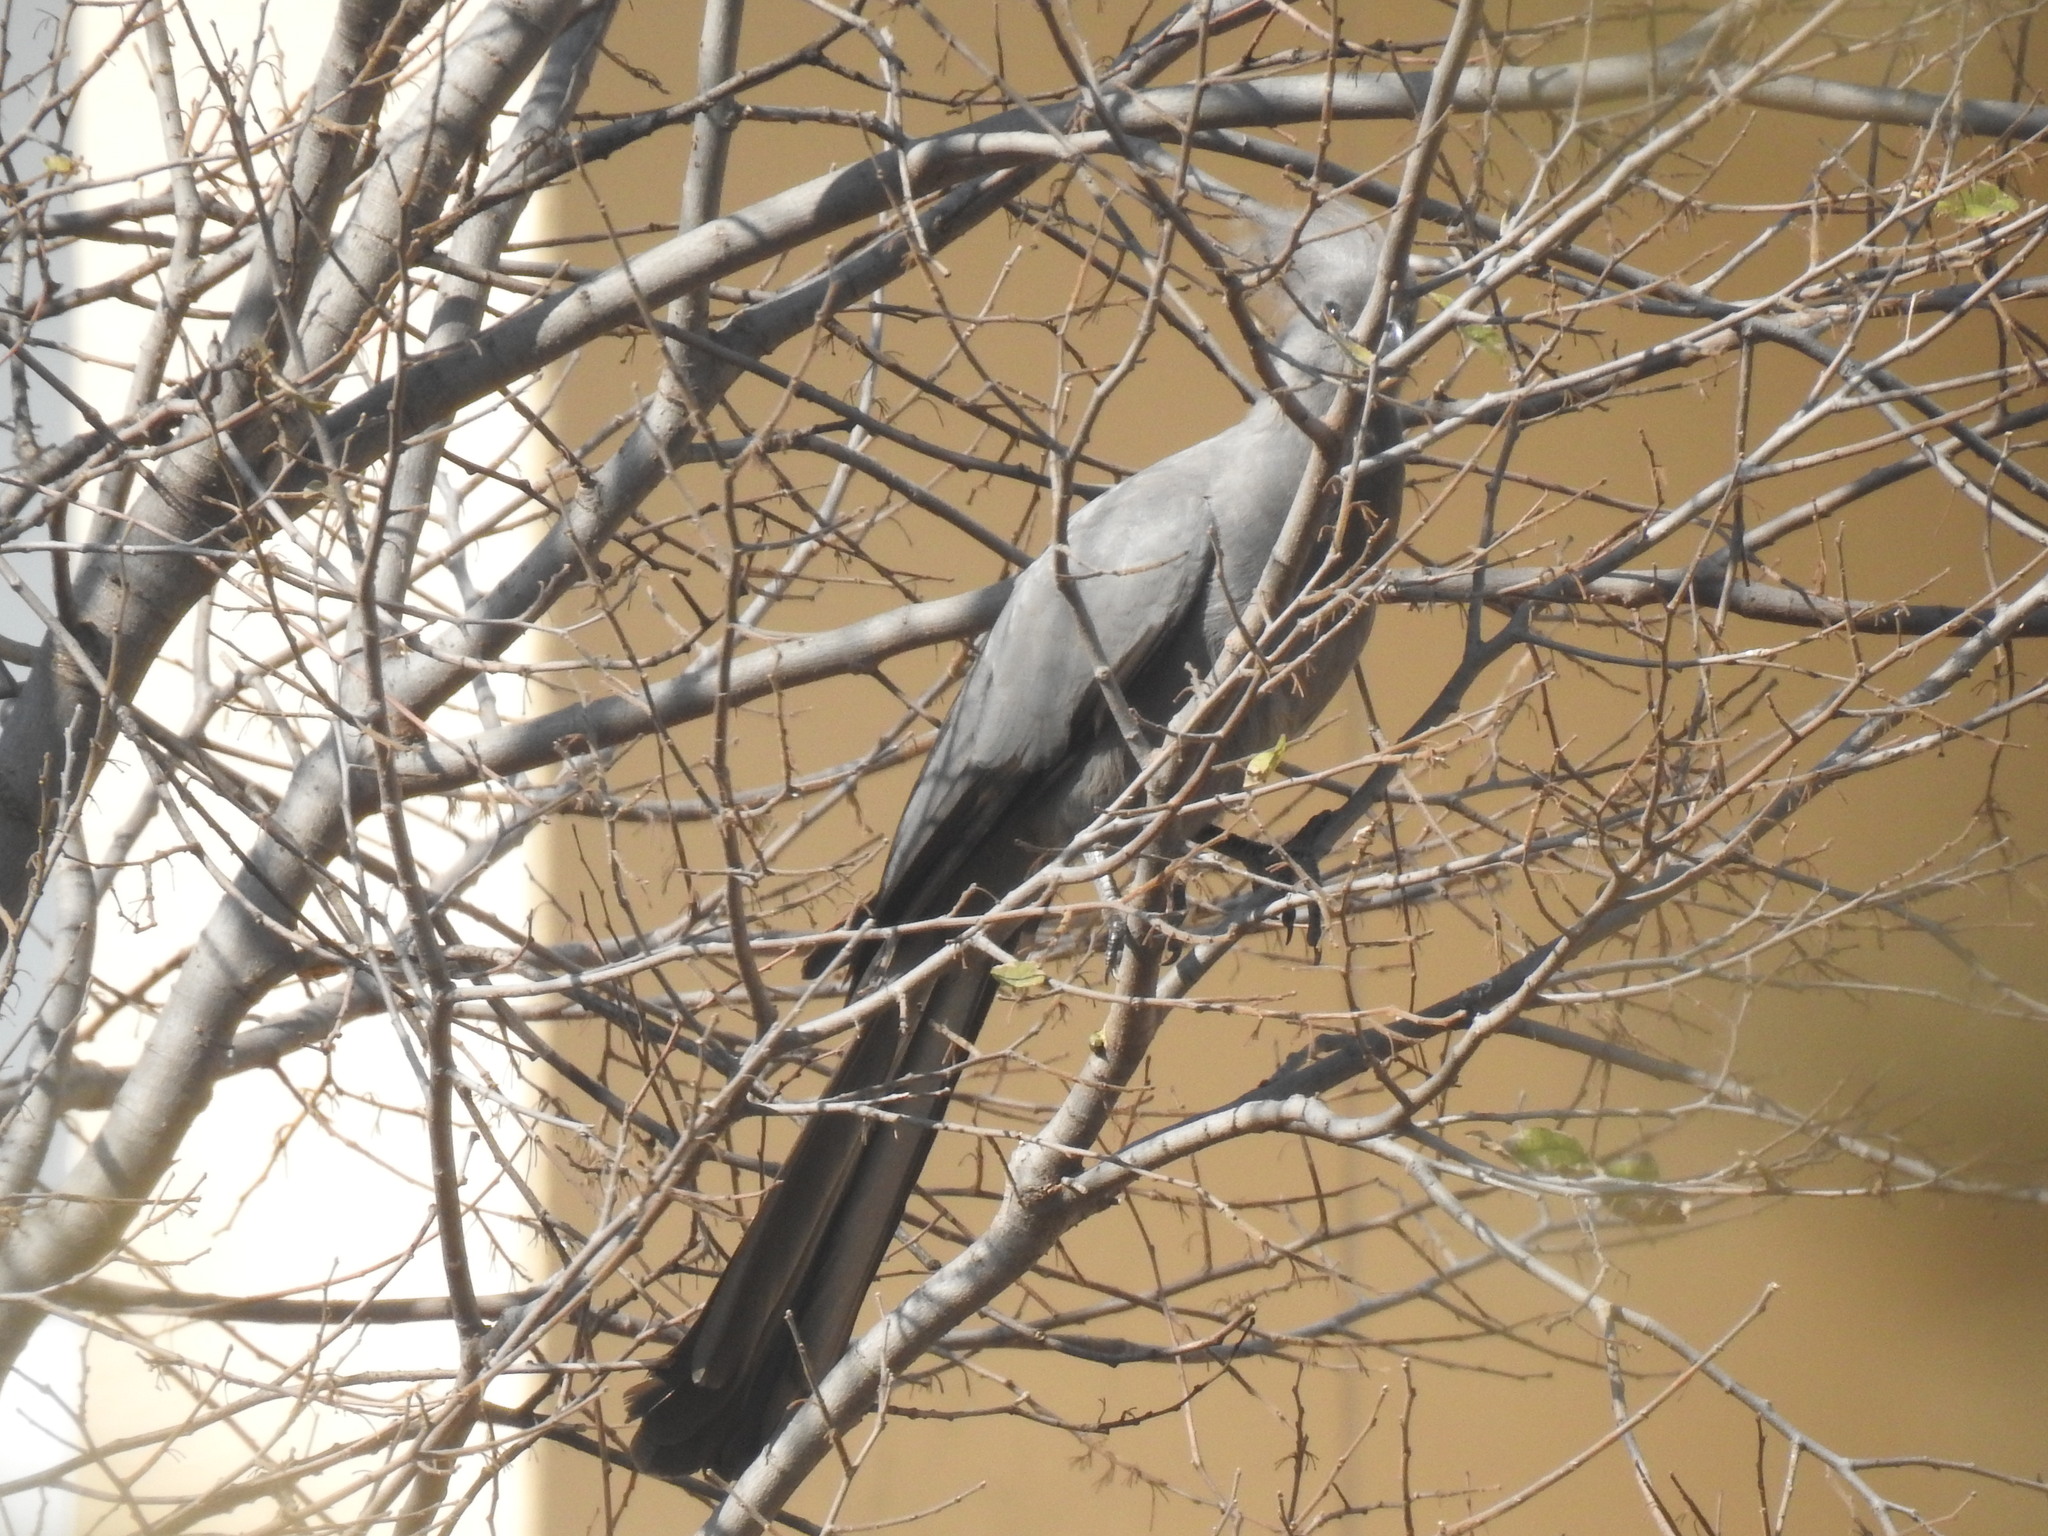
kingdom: Animalia
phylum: Chordata
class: Aves
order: Musophagiformes
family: Musophagidae
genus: Corythaixoides
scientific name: Corythaixoides concolor
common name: Grey go-away-bird
